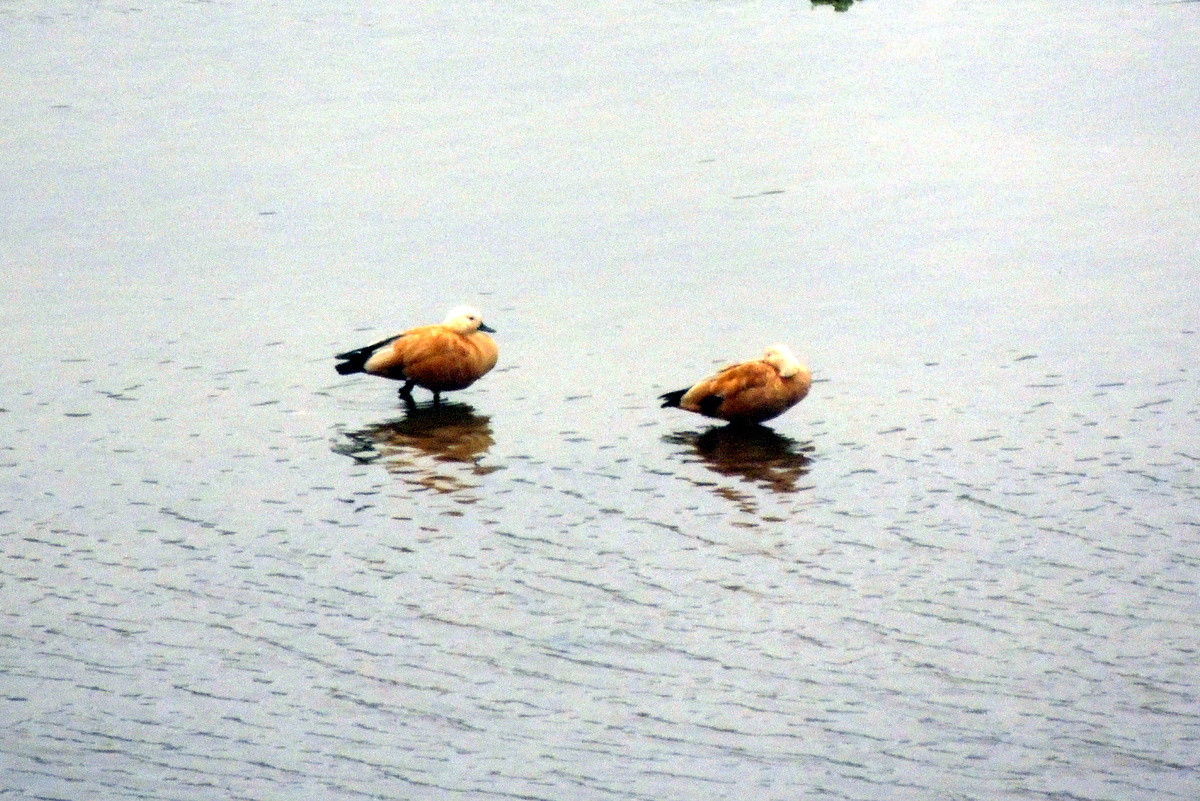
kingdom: Animalia
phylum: Chordata
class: Aves
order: Anseriformes
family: Anatidae
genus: Tadorna
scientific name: Tadorna ferruginea
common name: Ruddy shelduck
